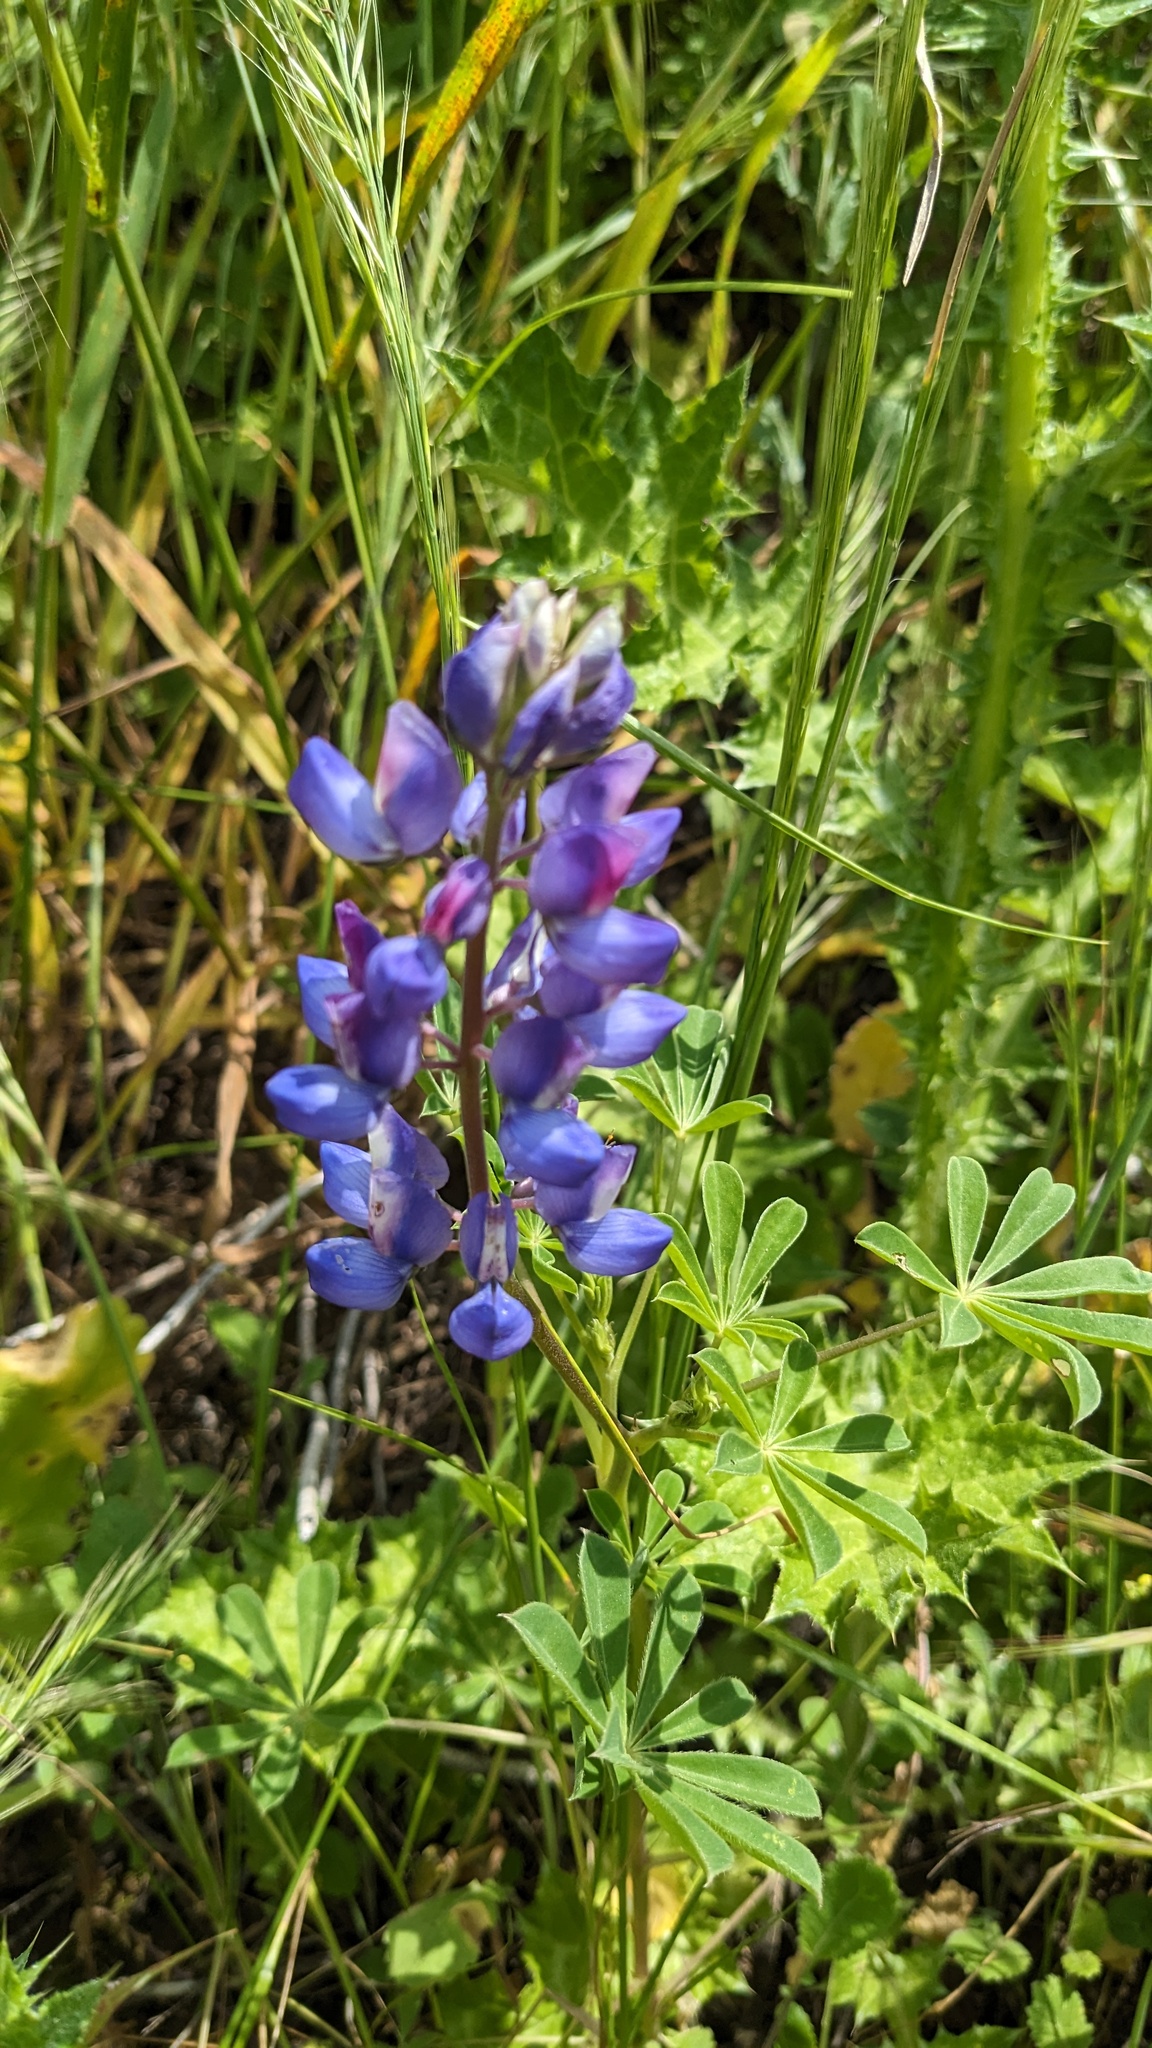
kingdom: Plantae
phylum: Tracheophyta
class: Magnoliopsida
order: Fabales
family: Fabaceae
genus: Lupinus
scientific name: Lupinus succulentus
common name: Arroyo lupine
